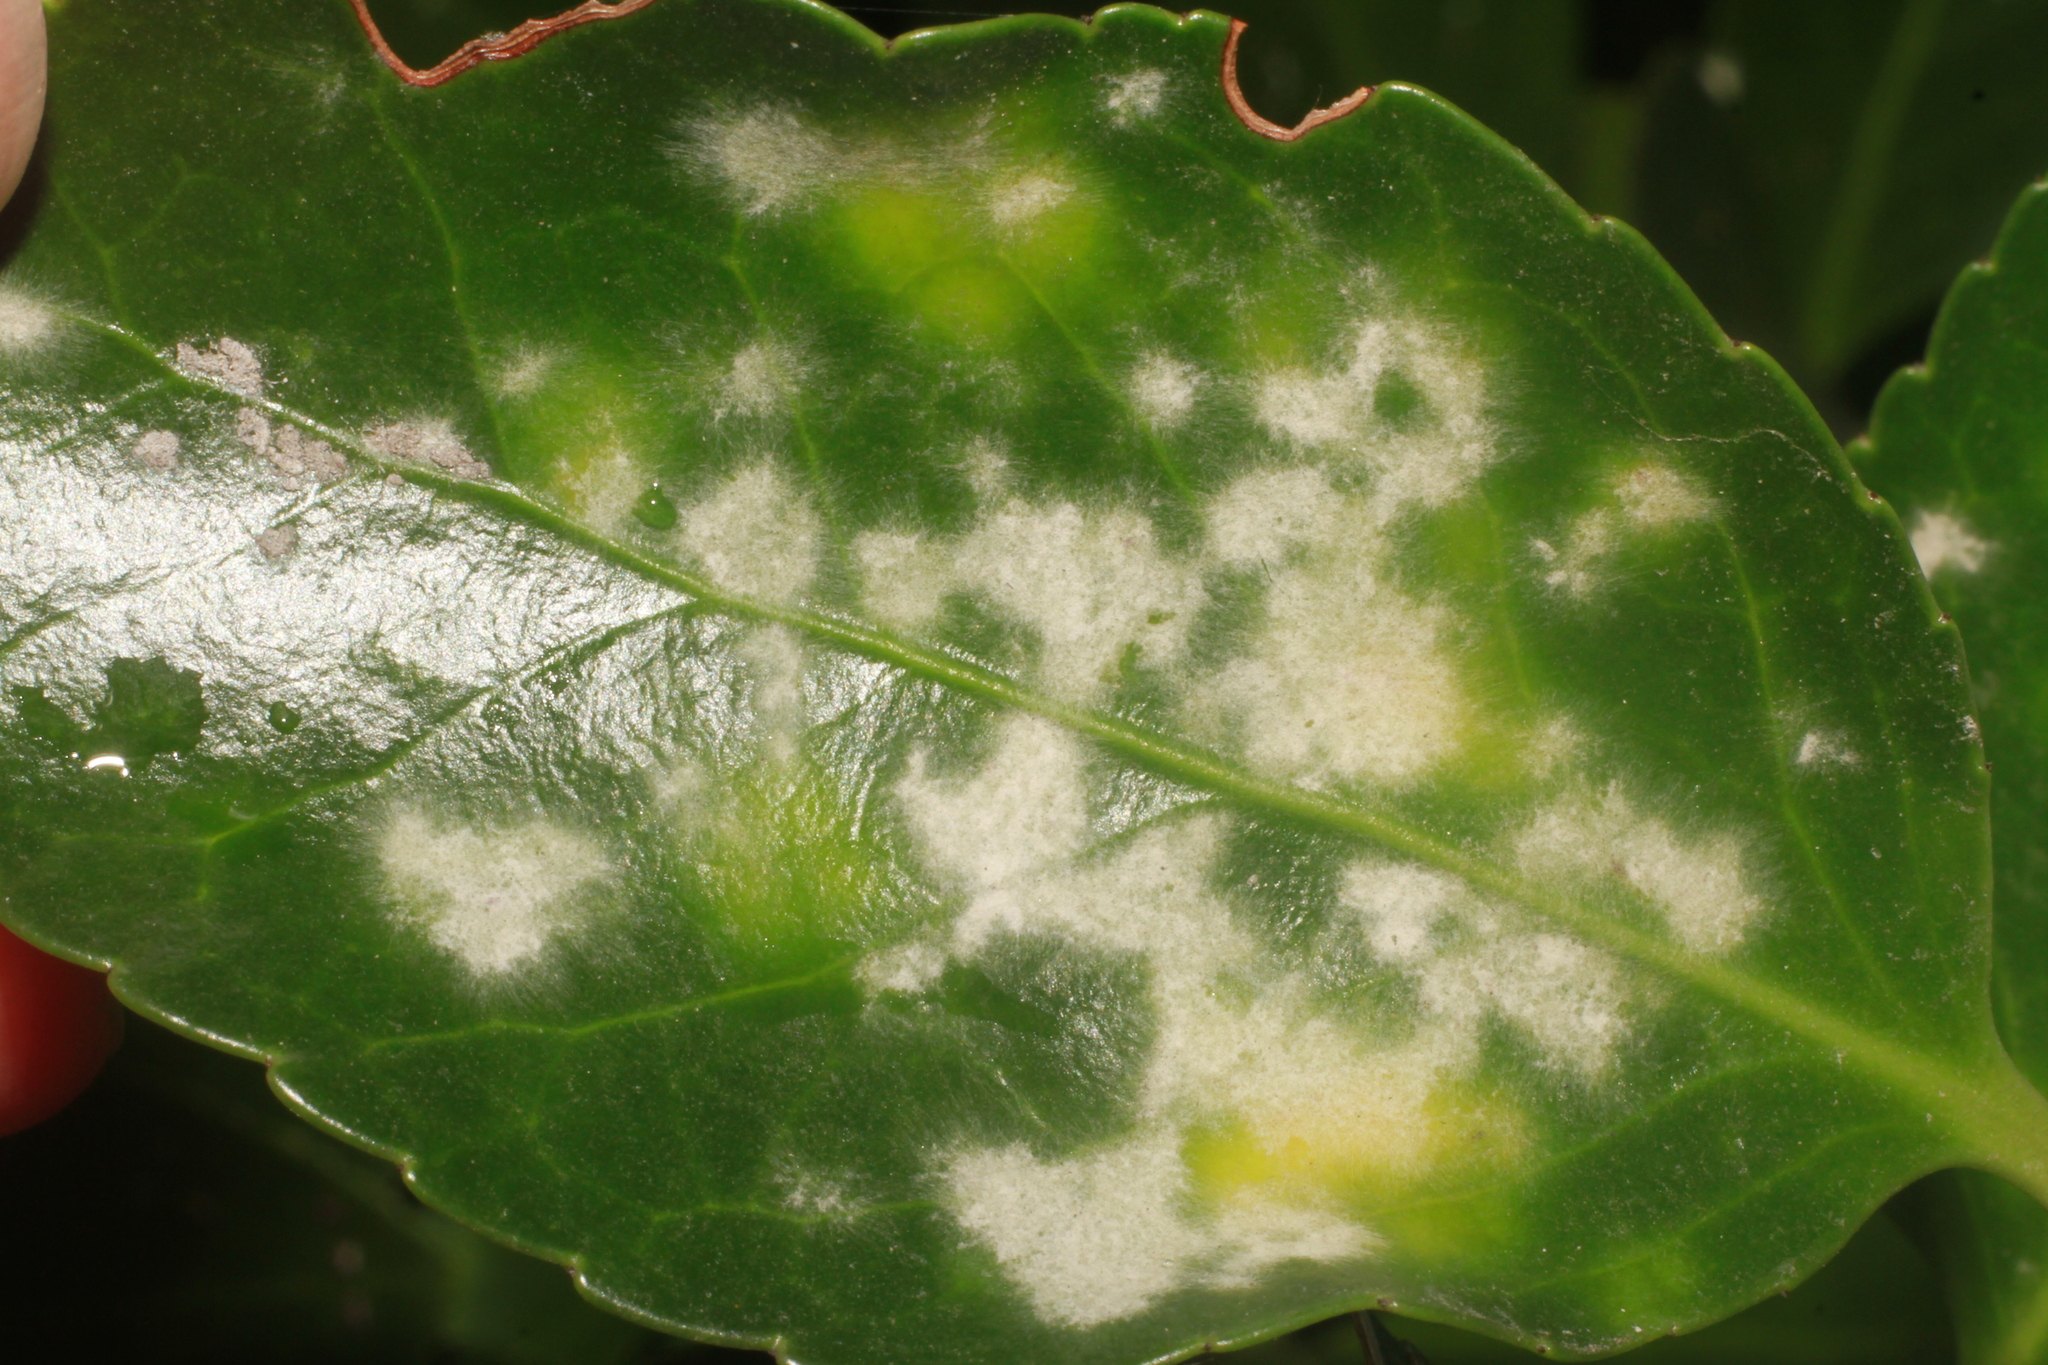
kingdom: Fungi
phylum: Ascomycota
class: Leotiomycetes
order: Helotiales
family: Erysiphaceae
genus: Erysiphe
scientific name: Erysiphe euonymicola
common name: Spindletree mildew
